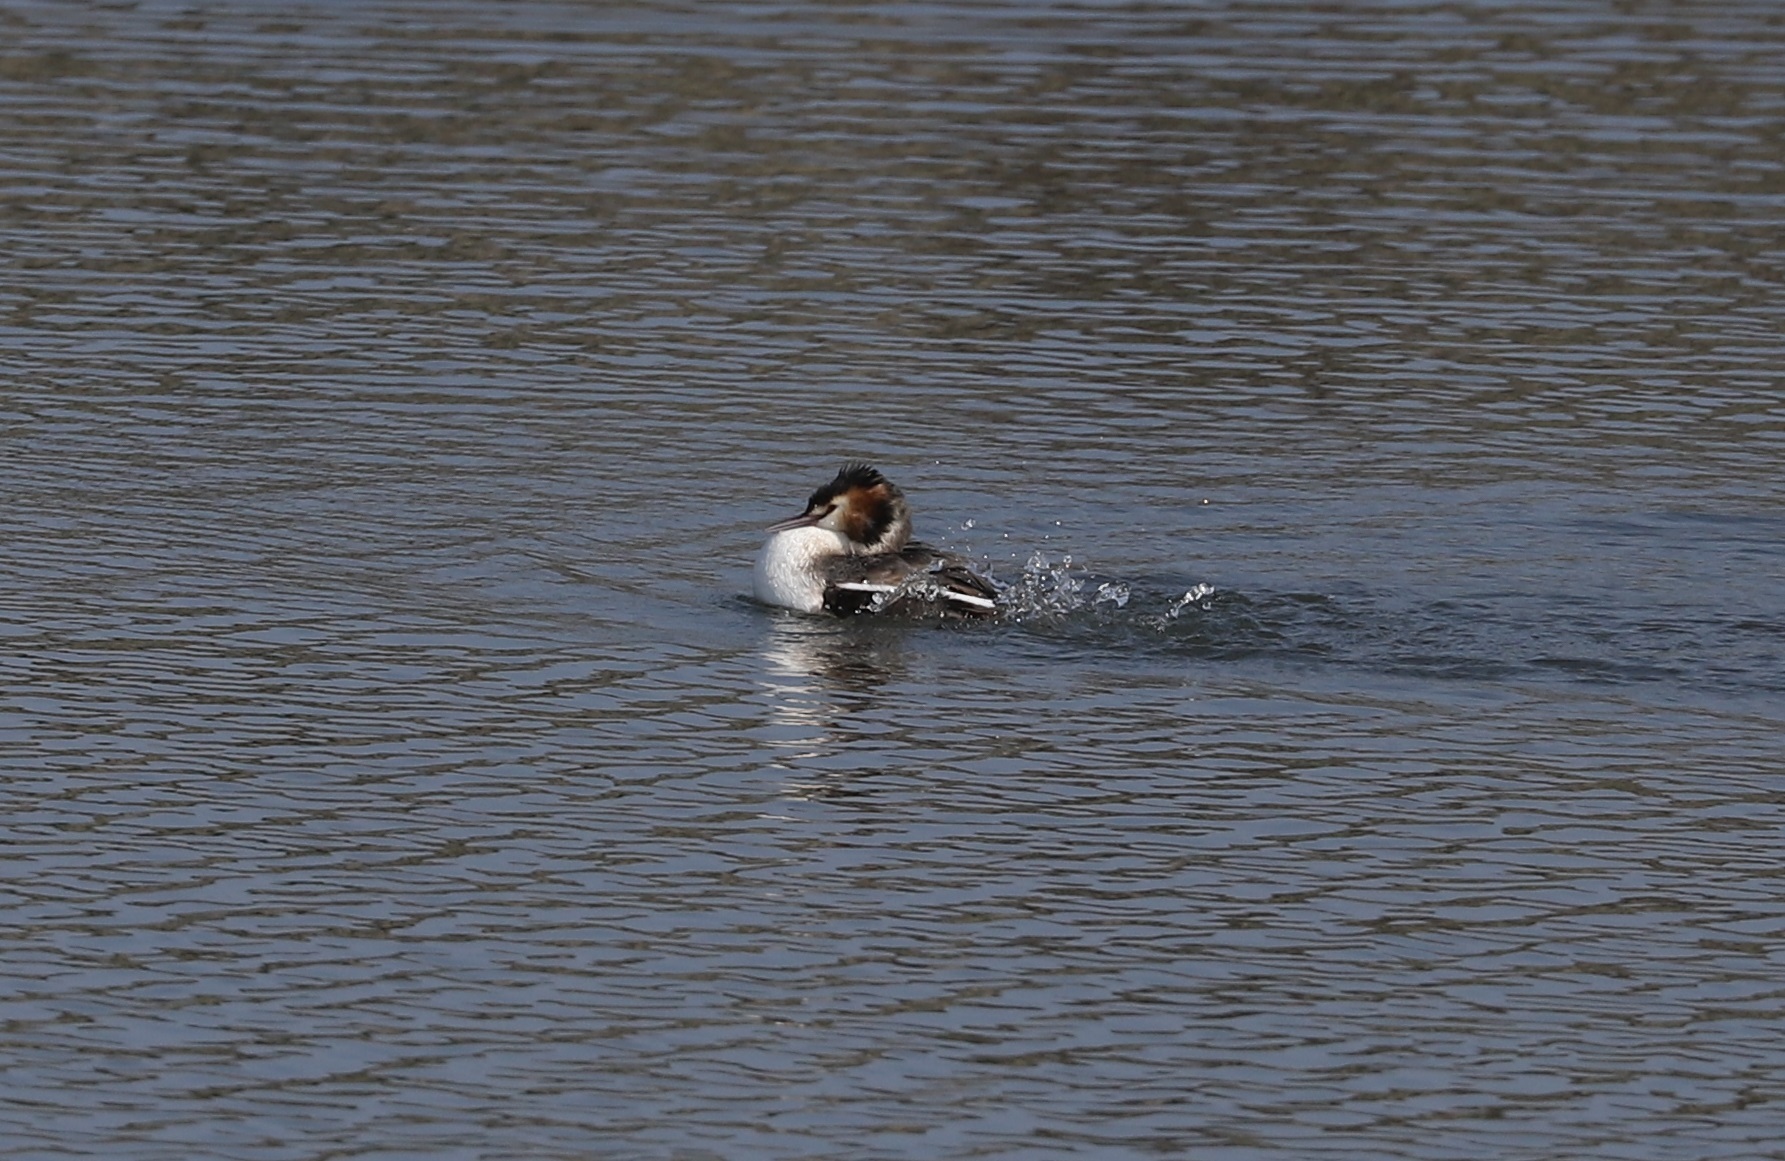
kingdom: Animalia
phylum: Chordata
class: Aves
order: Podicipediformes
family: Podicipedidae
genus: Podiceps
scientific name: Podiceps cristatus
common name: Great crested grebe
